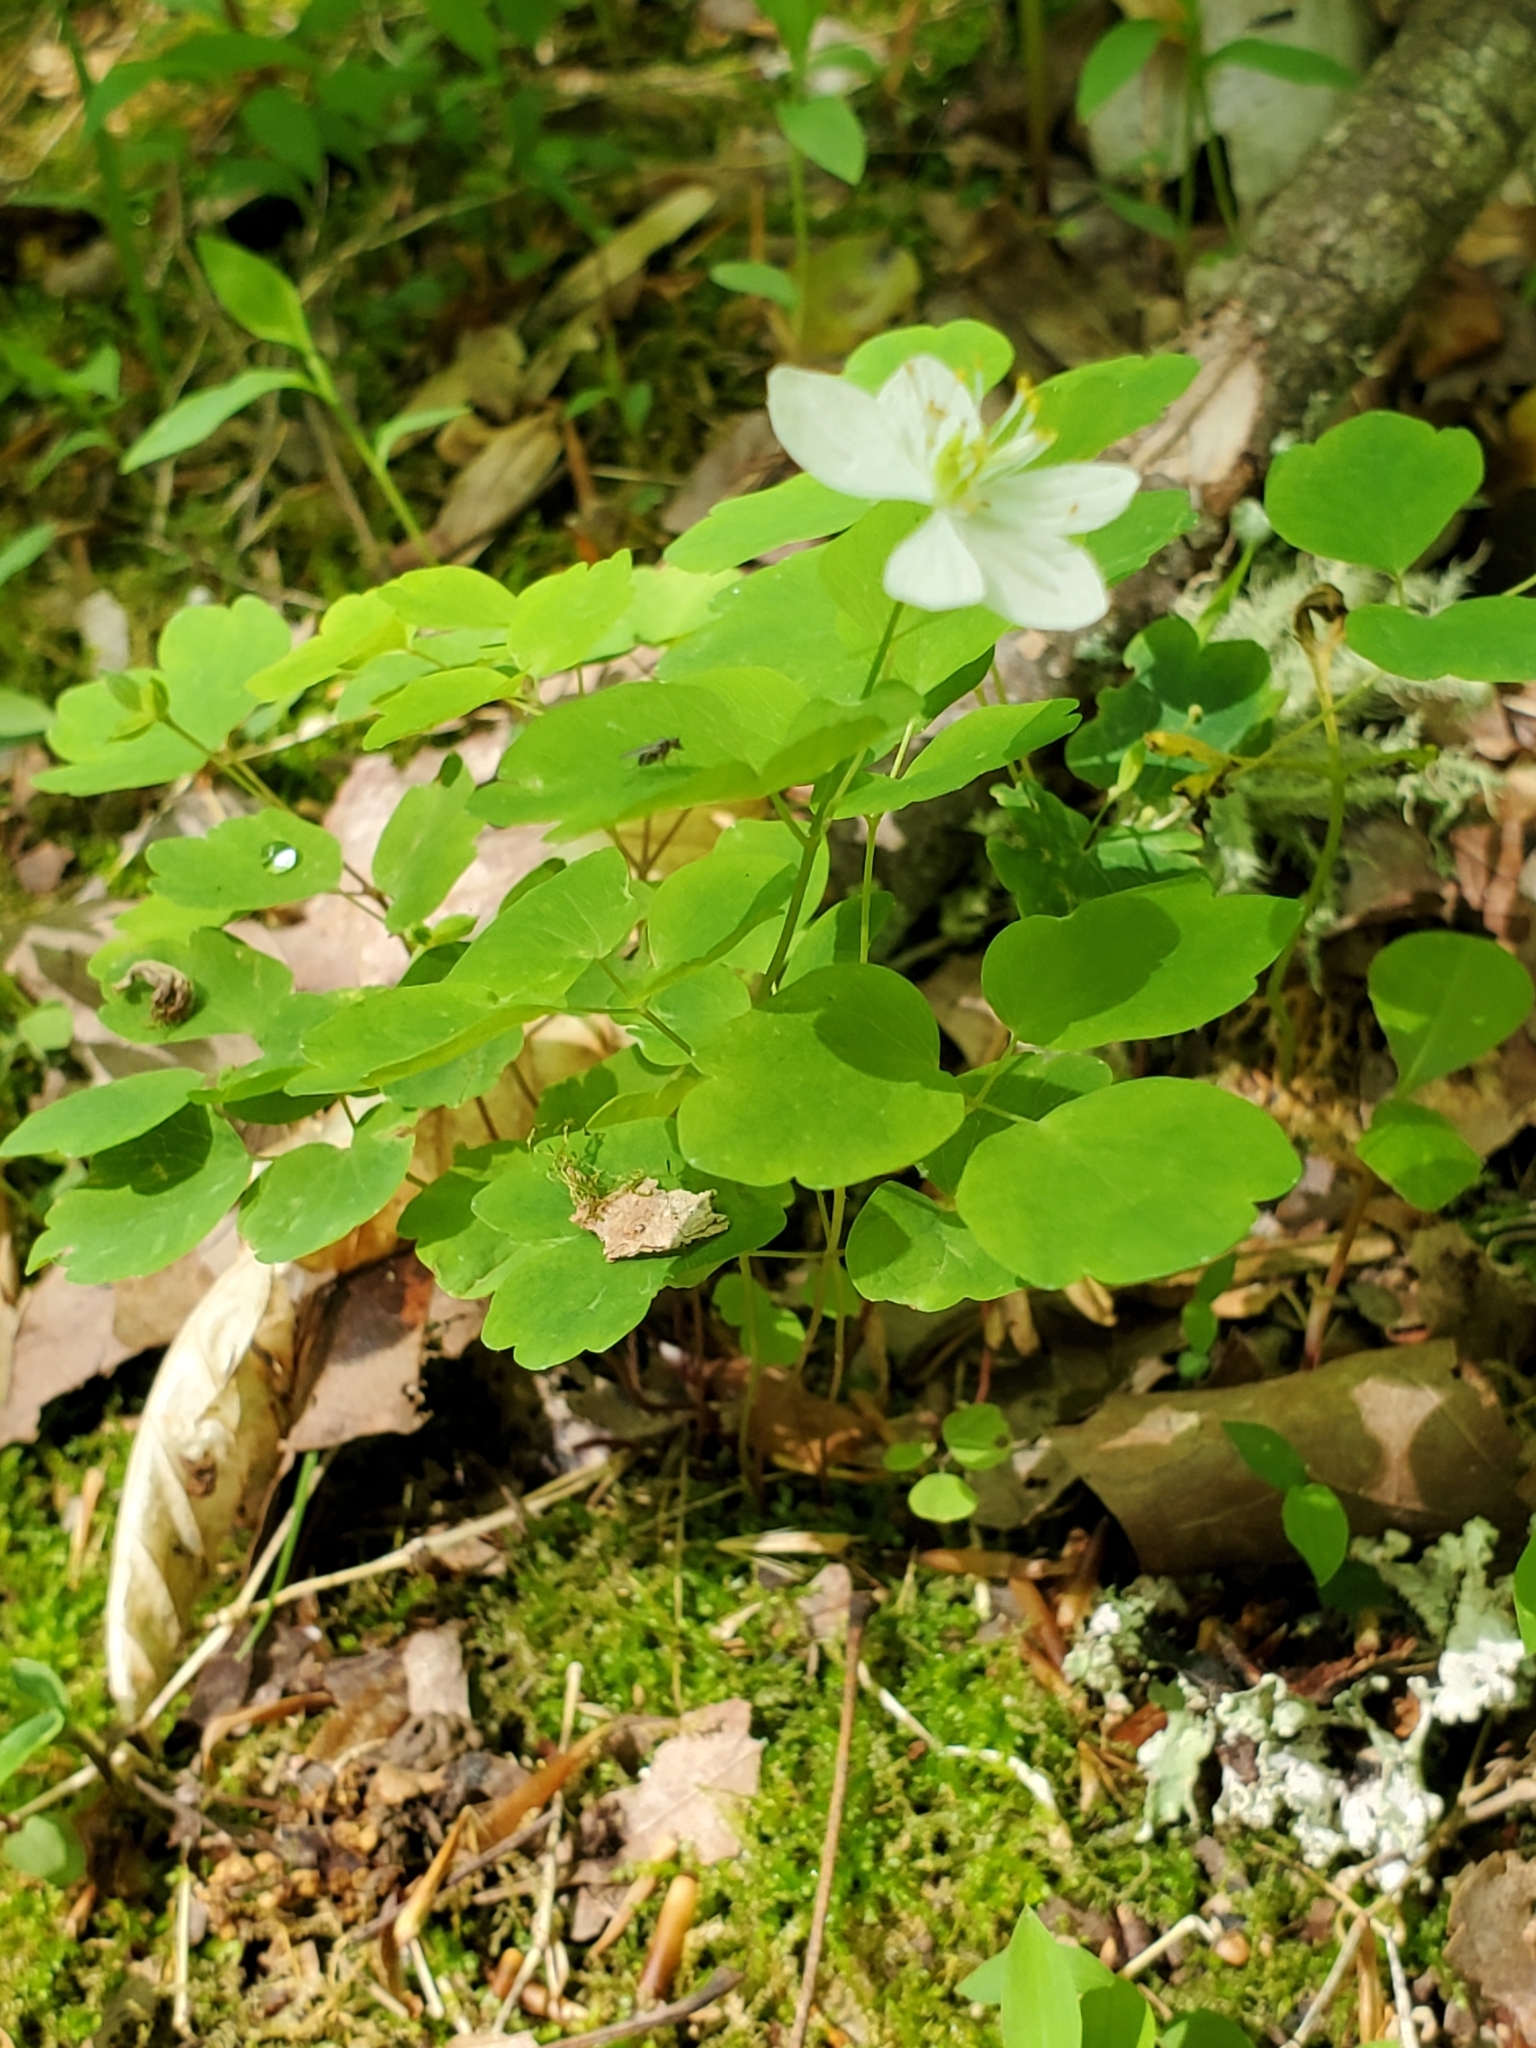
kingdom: Plantae
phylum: Tracheophyta
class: Magnoliopsida
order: Ranunculales
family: Ranunculaceae
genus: Thalictrum
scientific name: Thalictrum thalictroides
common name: Rue-anemone
